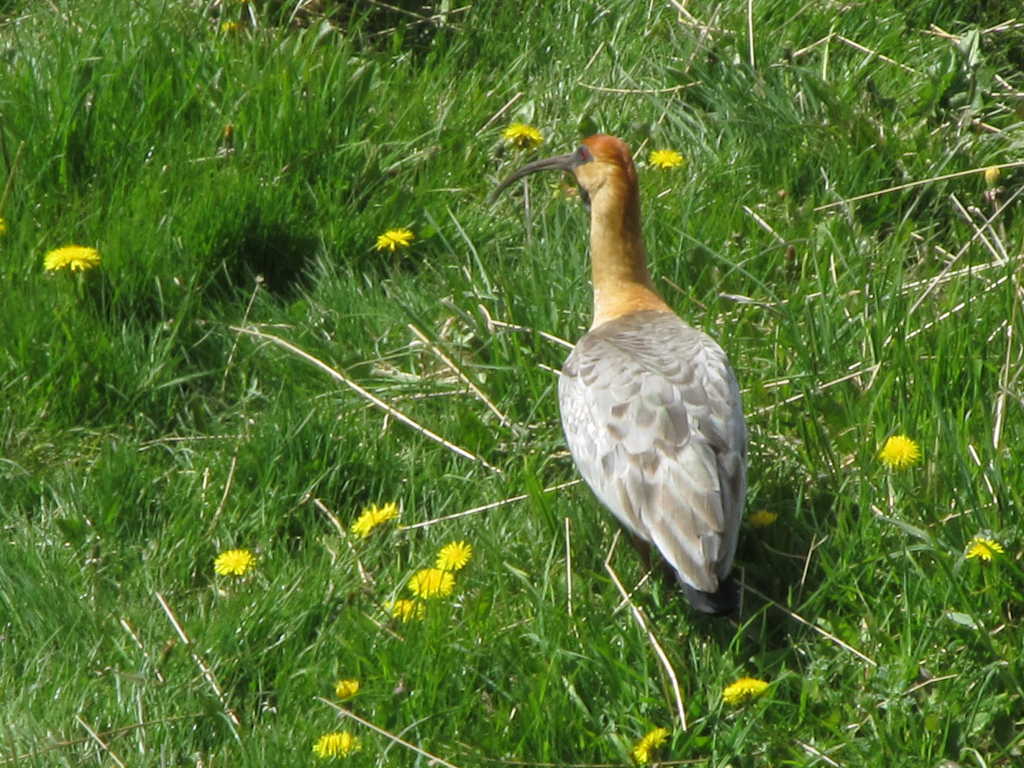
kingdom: Animalia
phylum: Chordata
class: Aves
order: Pelecaniformes
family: Threskiornithidae
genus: Theristicus
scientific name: Theristicus melanopis
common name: Black-faced ibis
